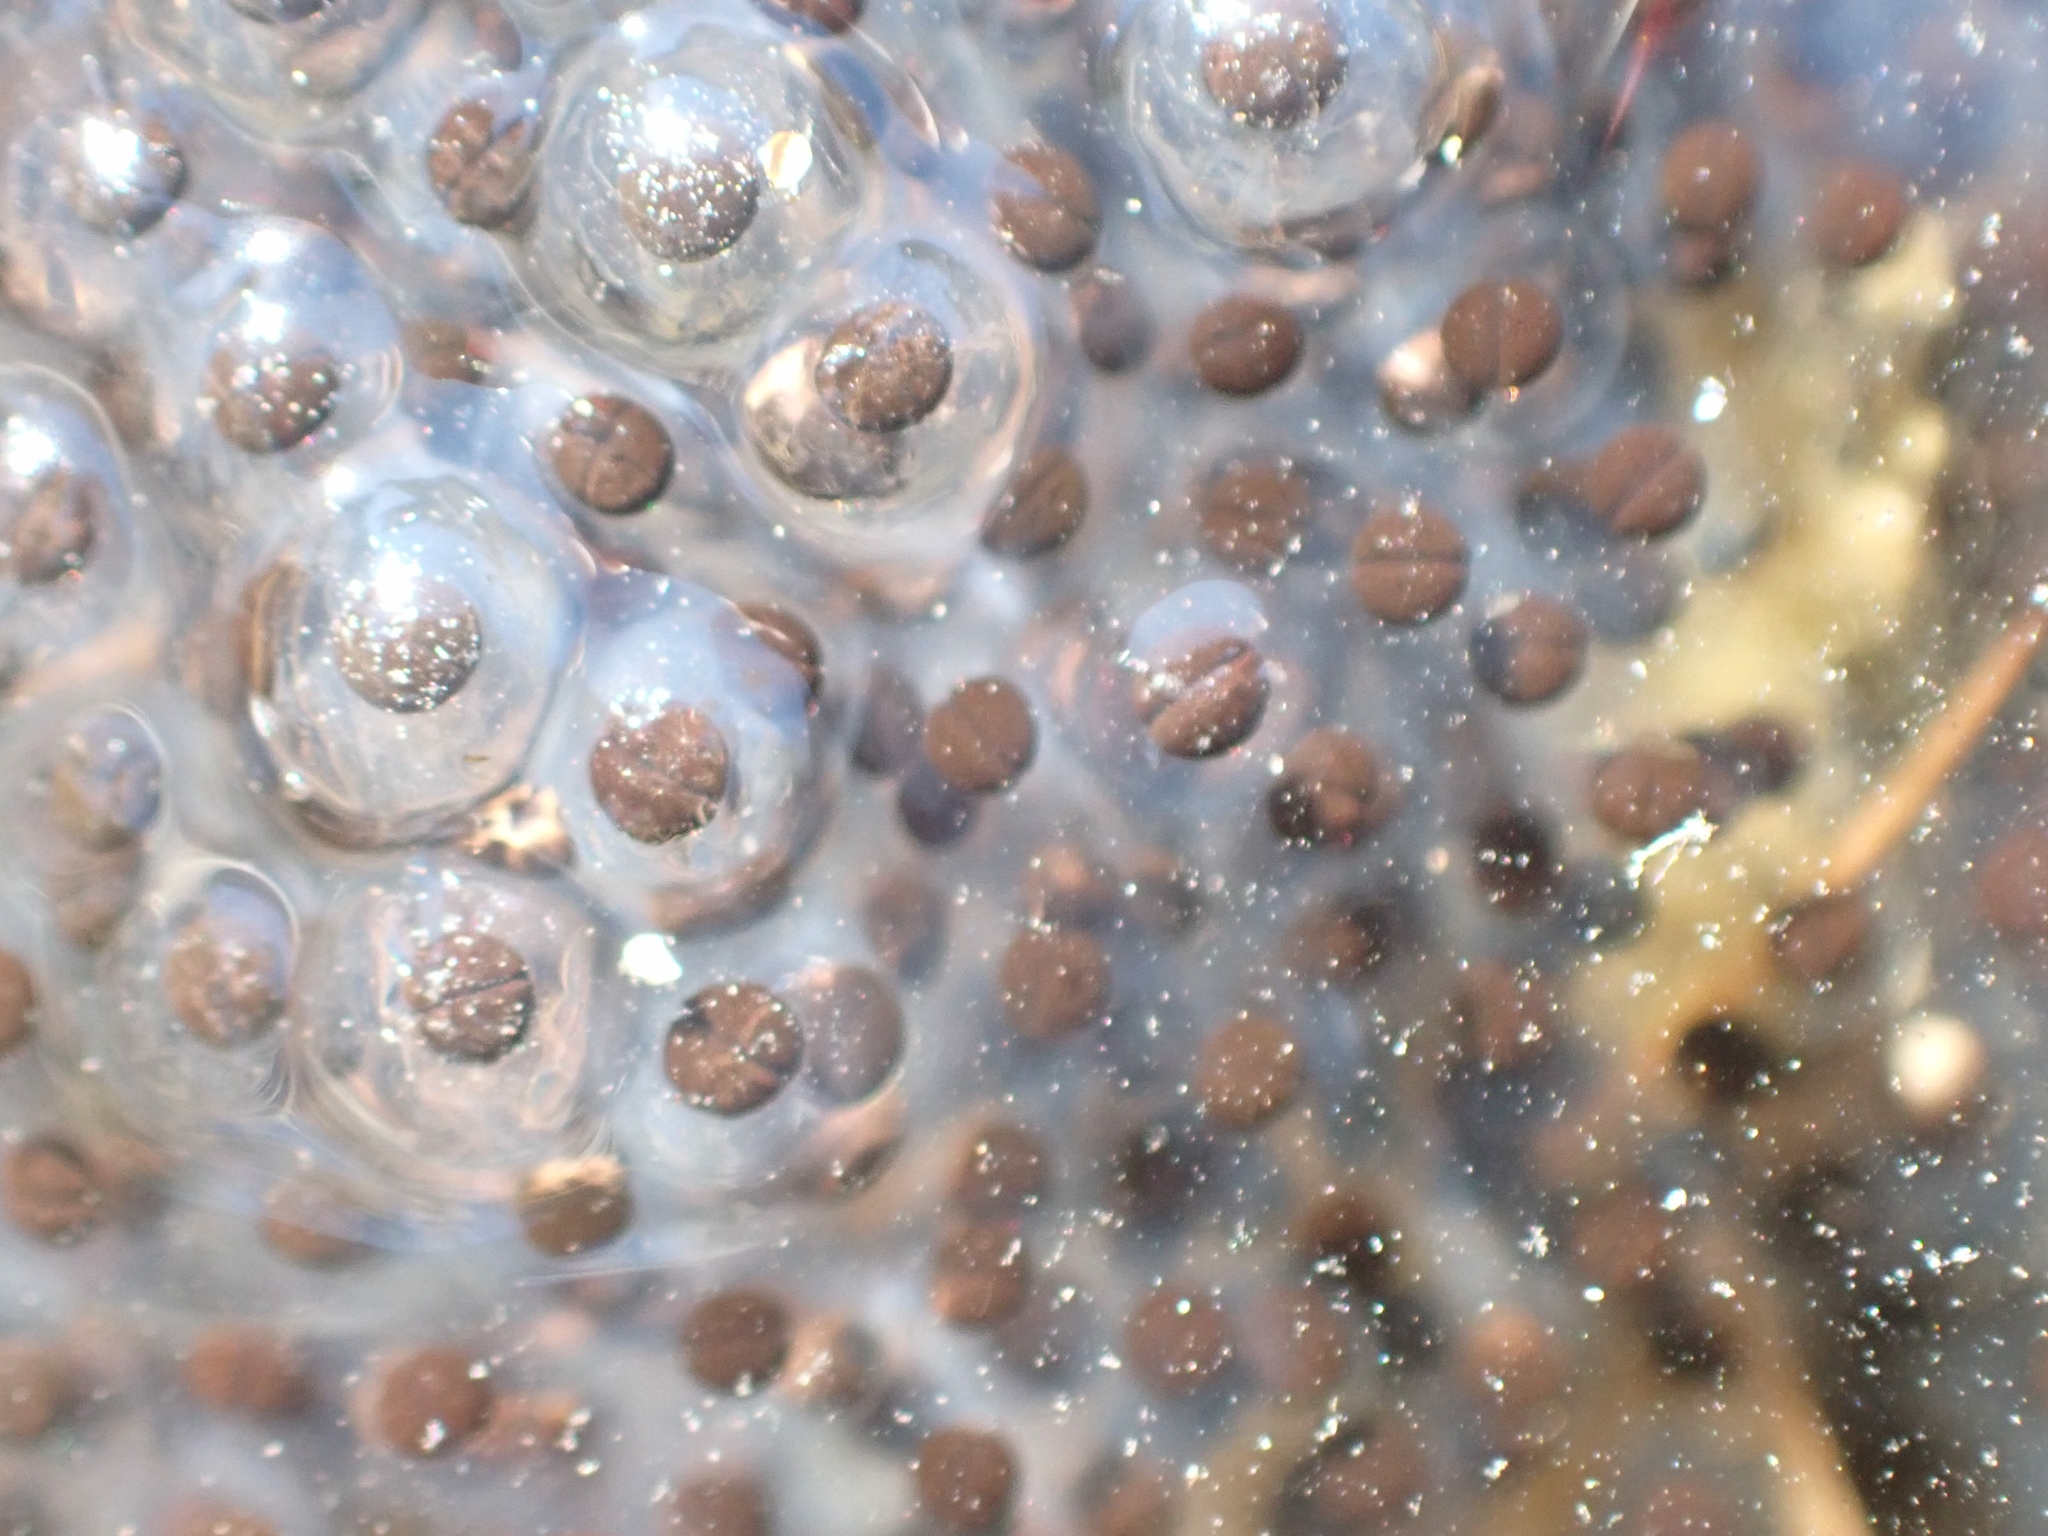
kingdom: Animalia
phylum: Chordata
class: Amphibia
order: Anura
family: Ranidae
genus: Lithobates
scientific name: Lithobates sylvaticus
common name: Wood frog
